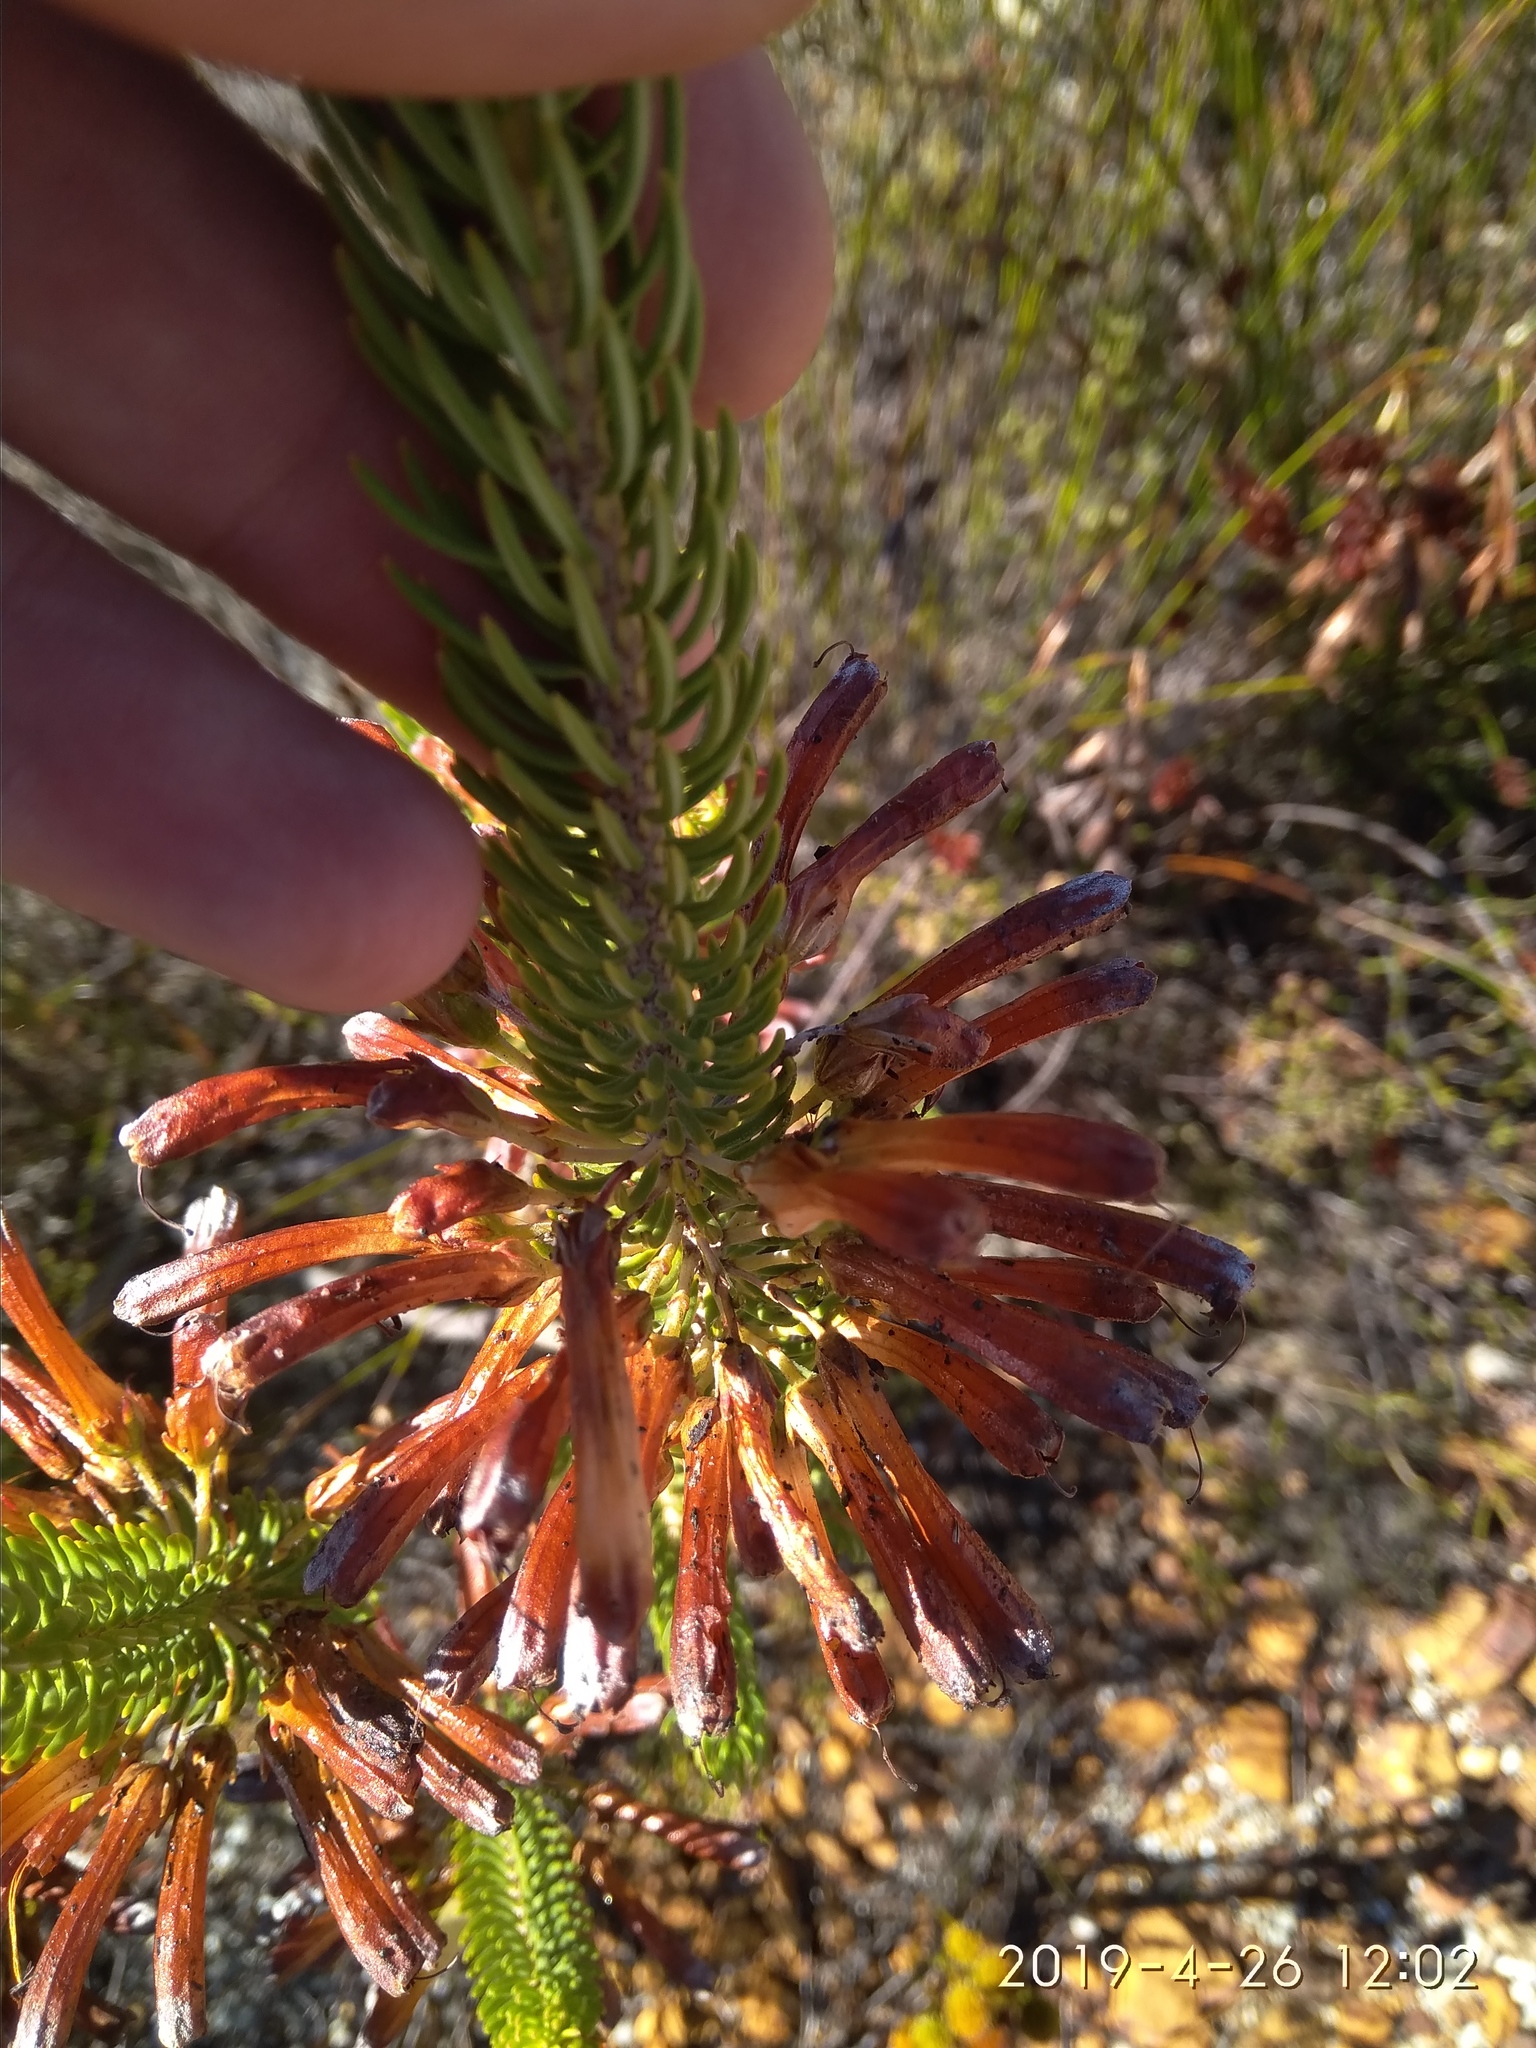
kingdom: Plantae
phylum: Tracheophyta
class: Magnoliopsida
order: Ericales
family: Ericaceae
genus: Erica
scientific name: Erica thomae
